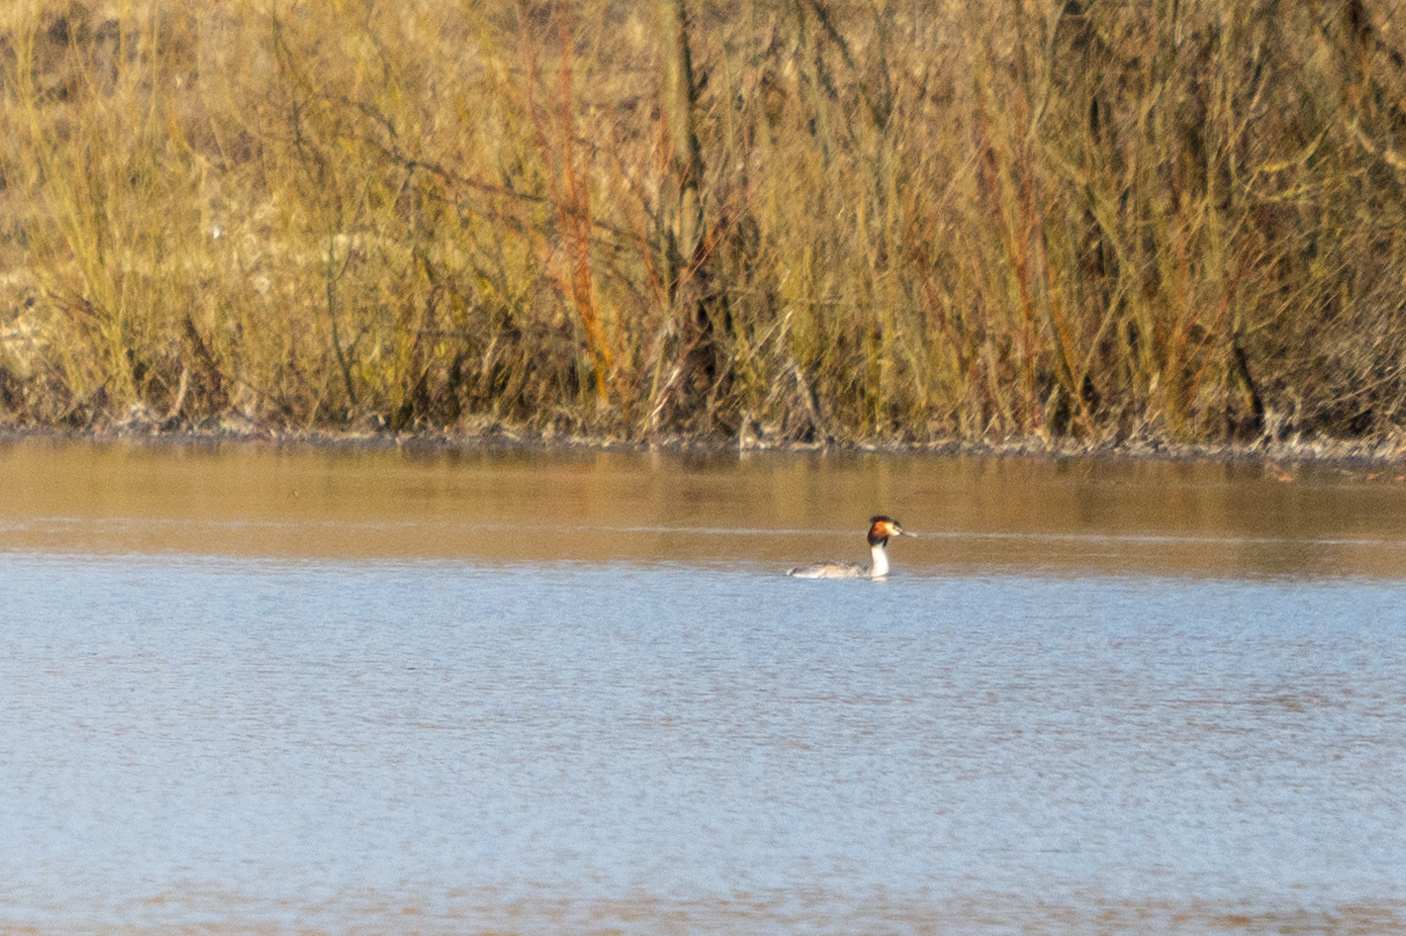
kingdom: Animalia
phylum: Chordata
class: Aves
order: Podicipediformes
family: Podicipedidae
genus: Podiceps
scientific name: Podiceps cristatus
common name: Great crested grebe
